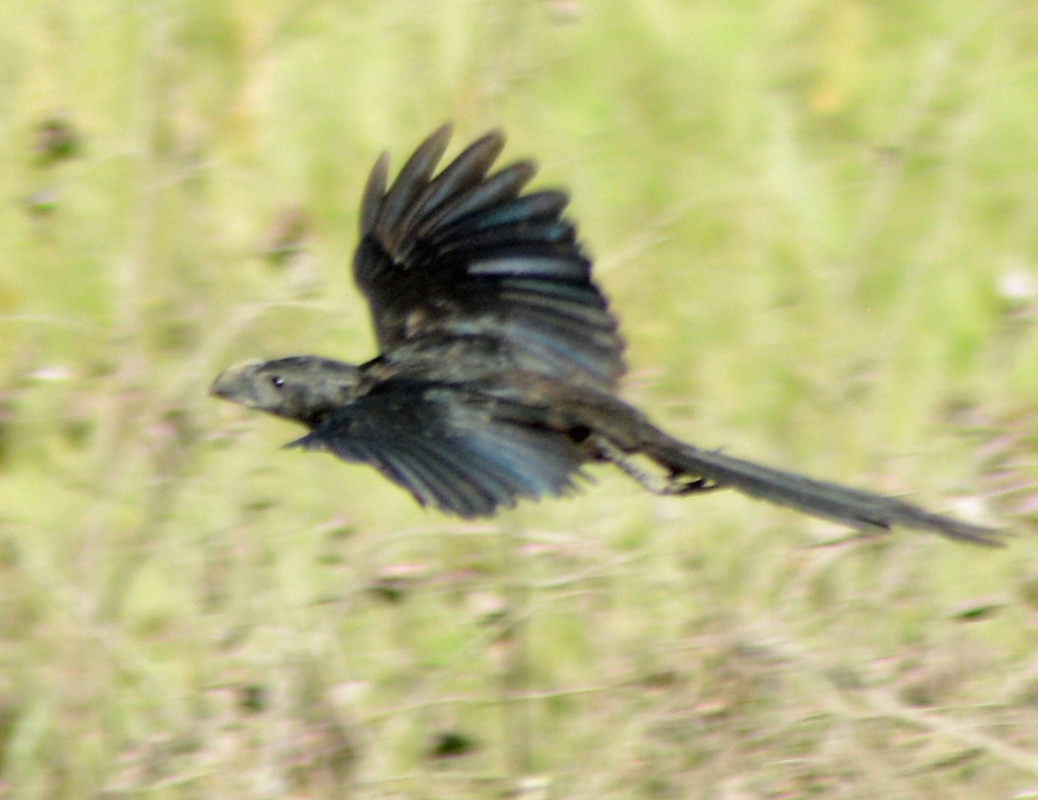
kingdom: Animalia
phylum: Chordata
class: Aves
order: Cuculiformes
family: Cuculidae
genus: Crotophaga
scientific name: Crotophaga sulcirostris
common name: Groove-billed ani
